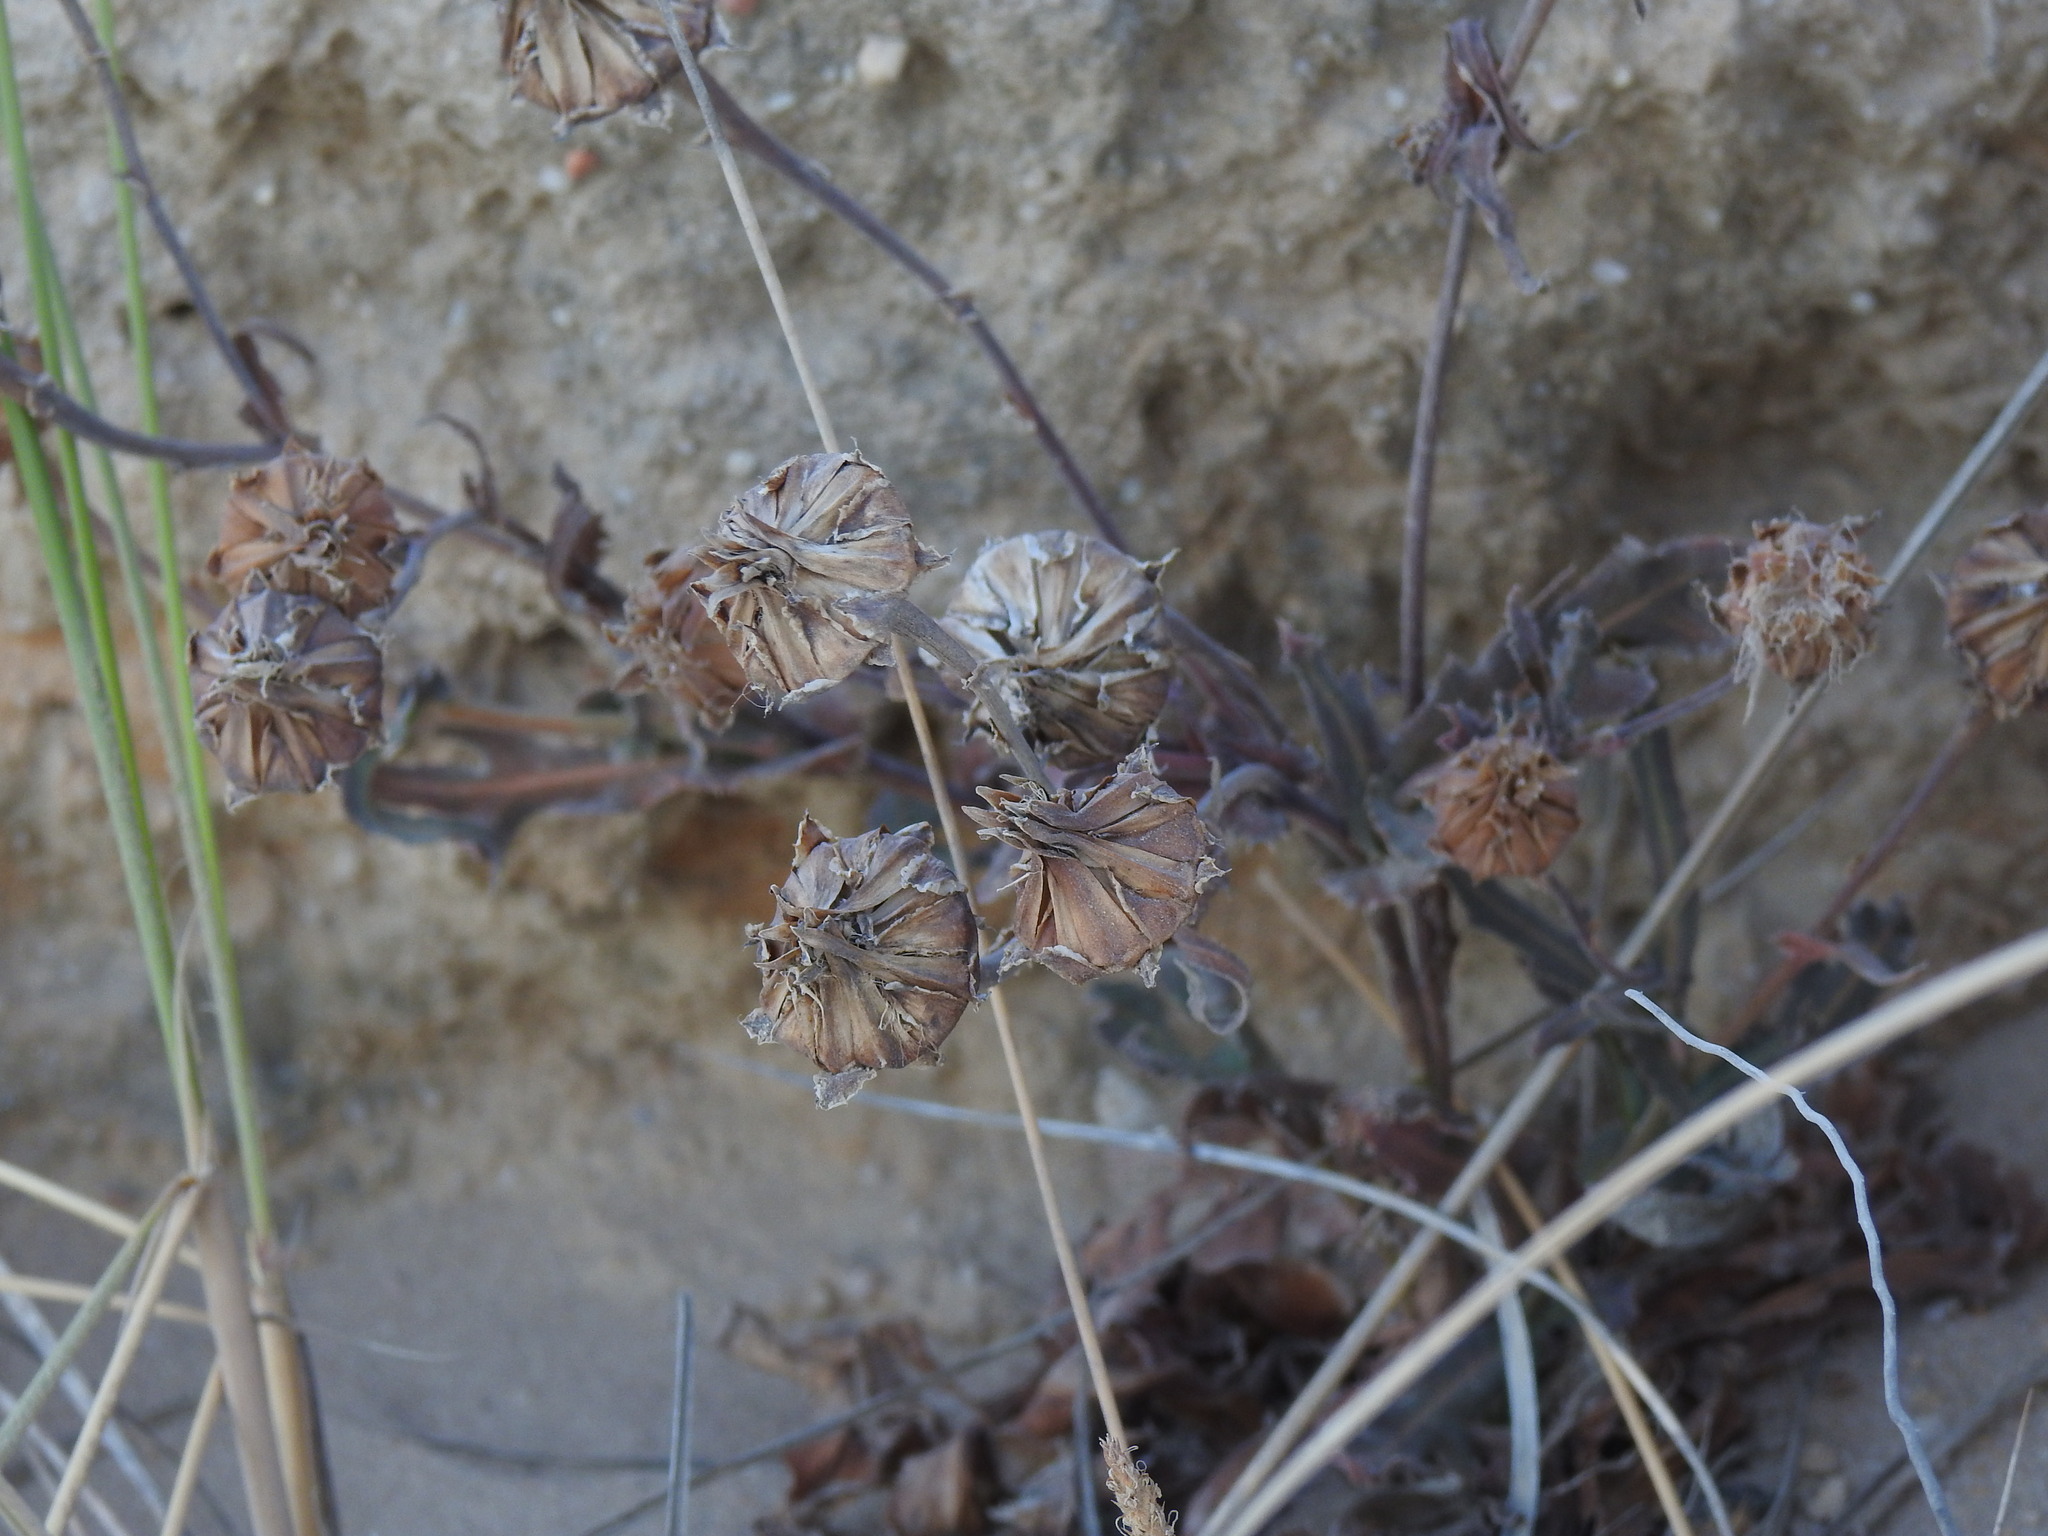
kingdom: Plantae
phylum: Tracheophyta
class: Magnoliopsida
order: Asterales
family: Asteraceae
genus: Reichardia
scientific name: Reichardia gaditana
